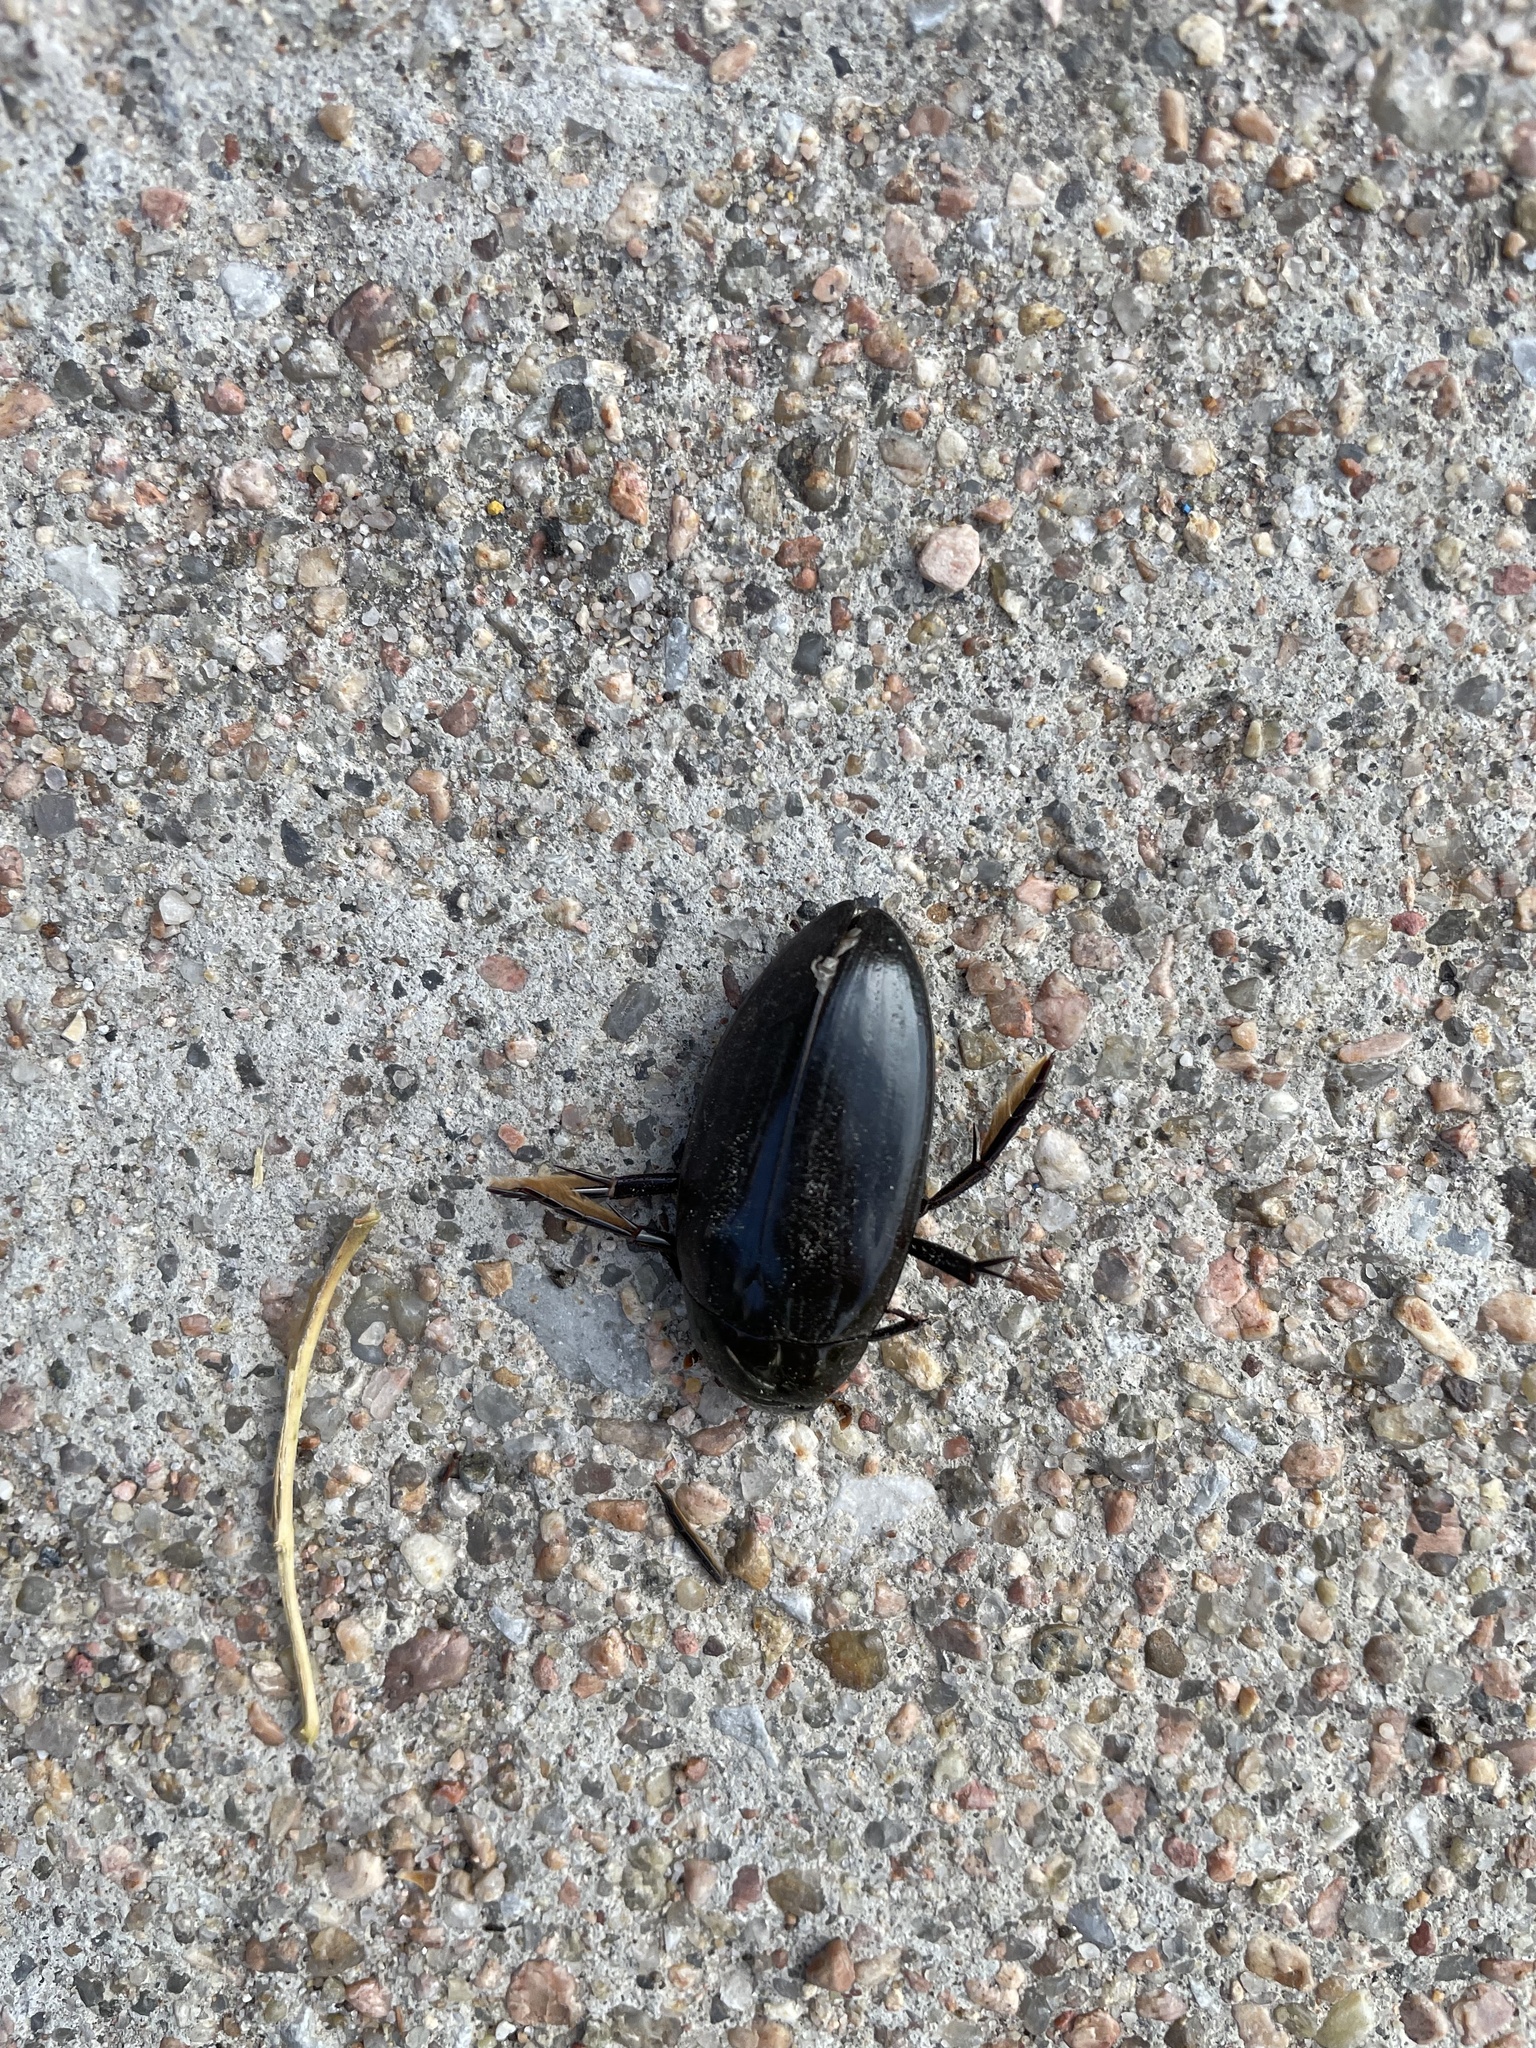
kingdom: Animalia
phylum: Arthropoda
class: Insecta
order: Coleoptera
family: Hydrophilidae
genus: Hydrophilus
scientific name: Hydrophilus triangularis
